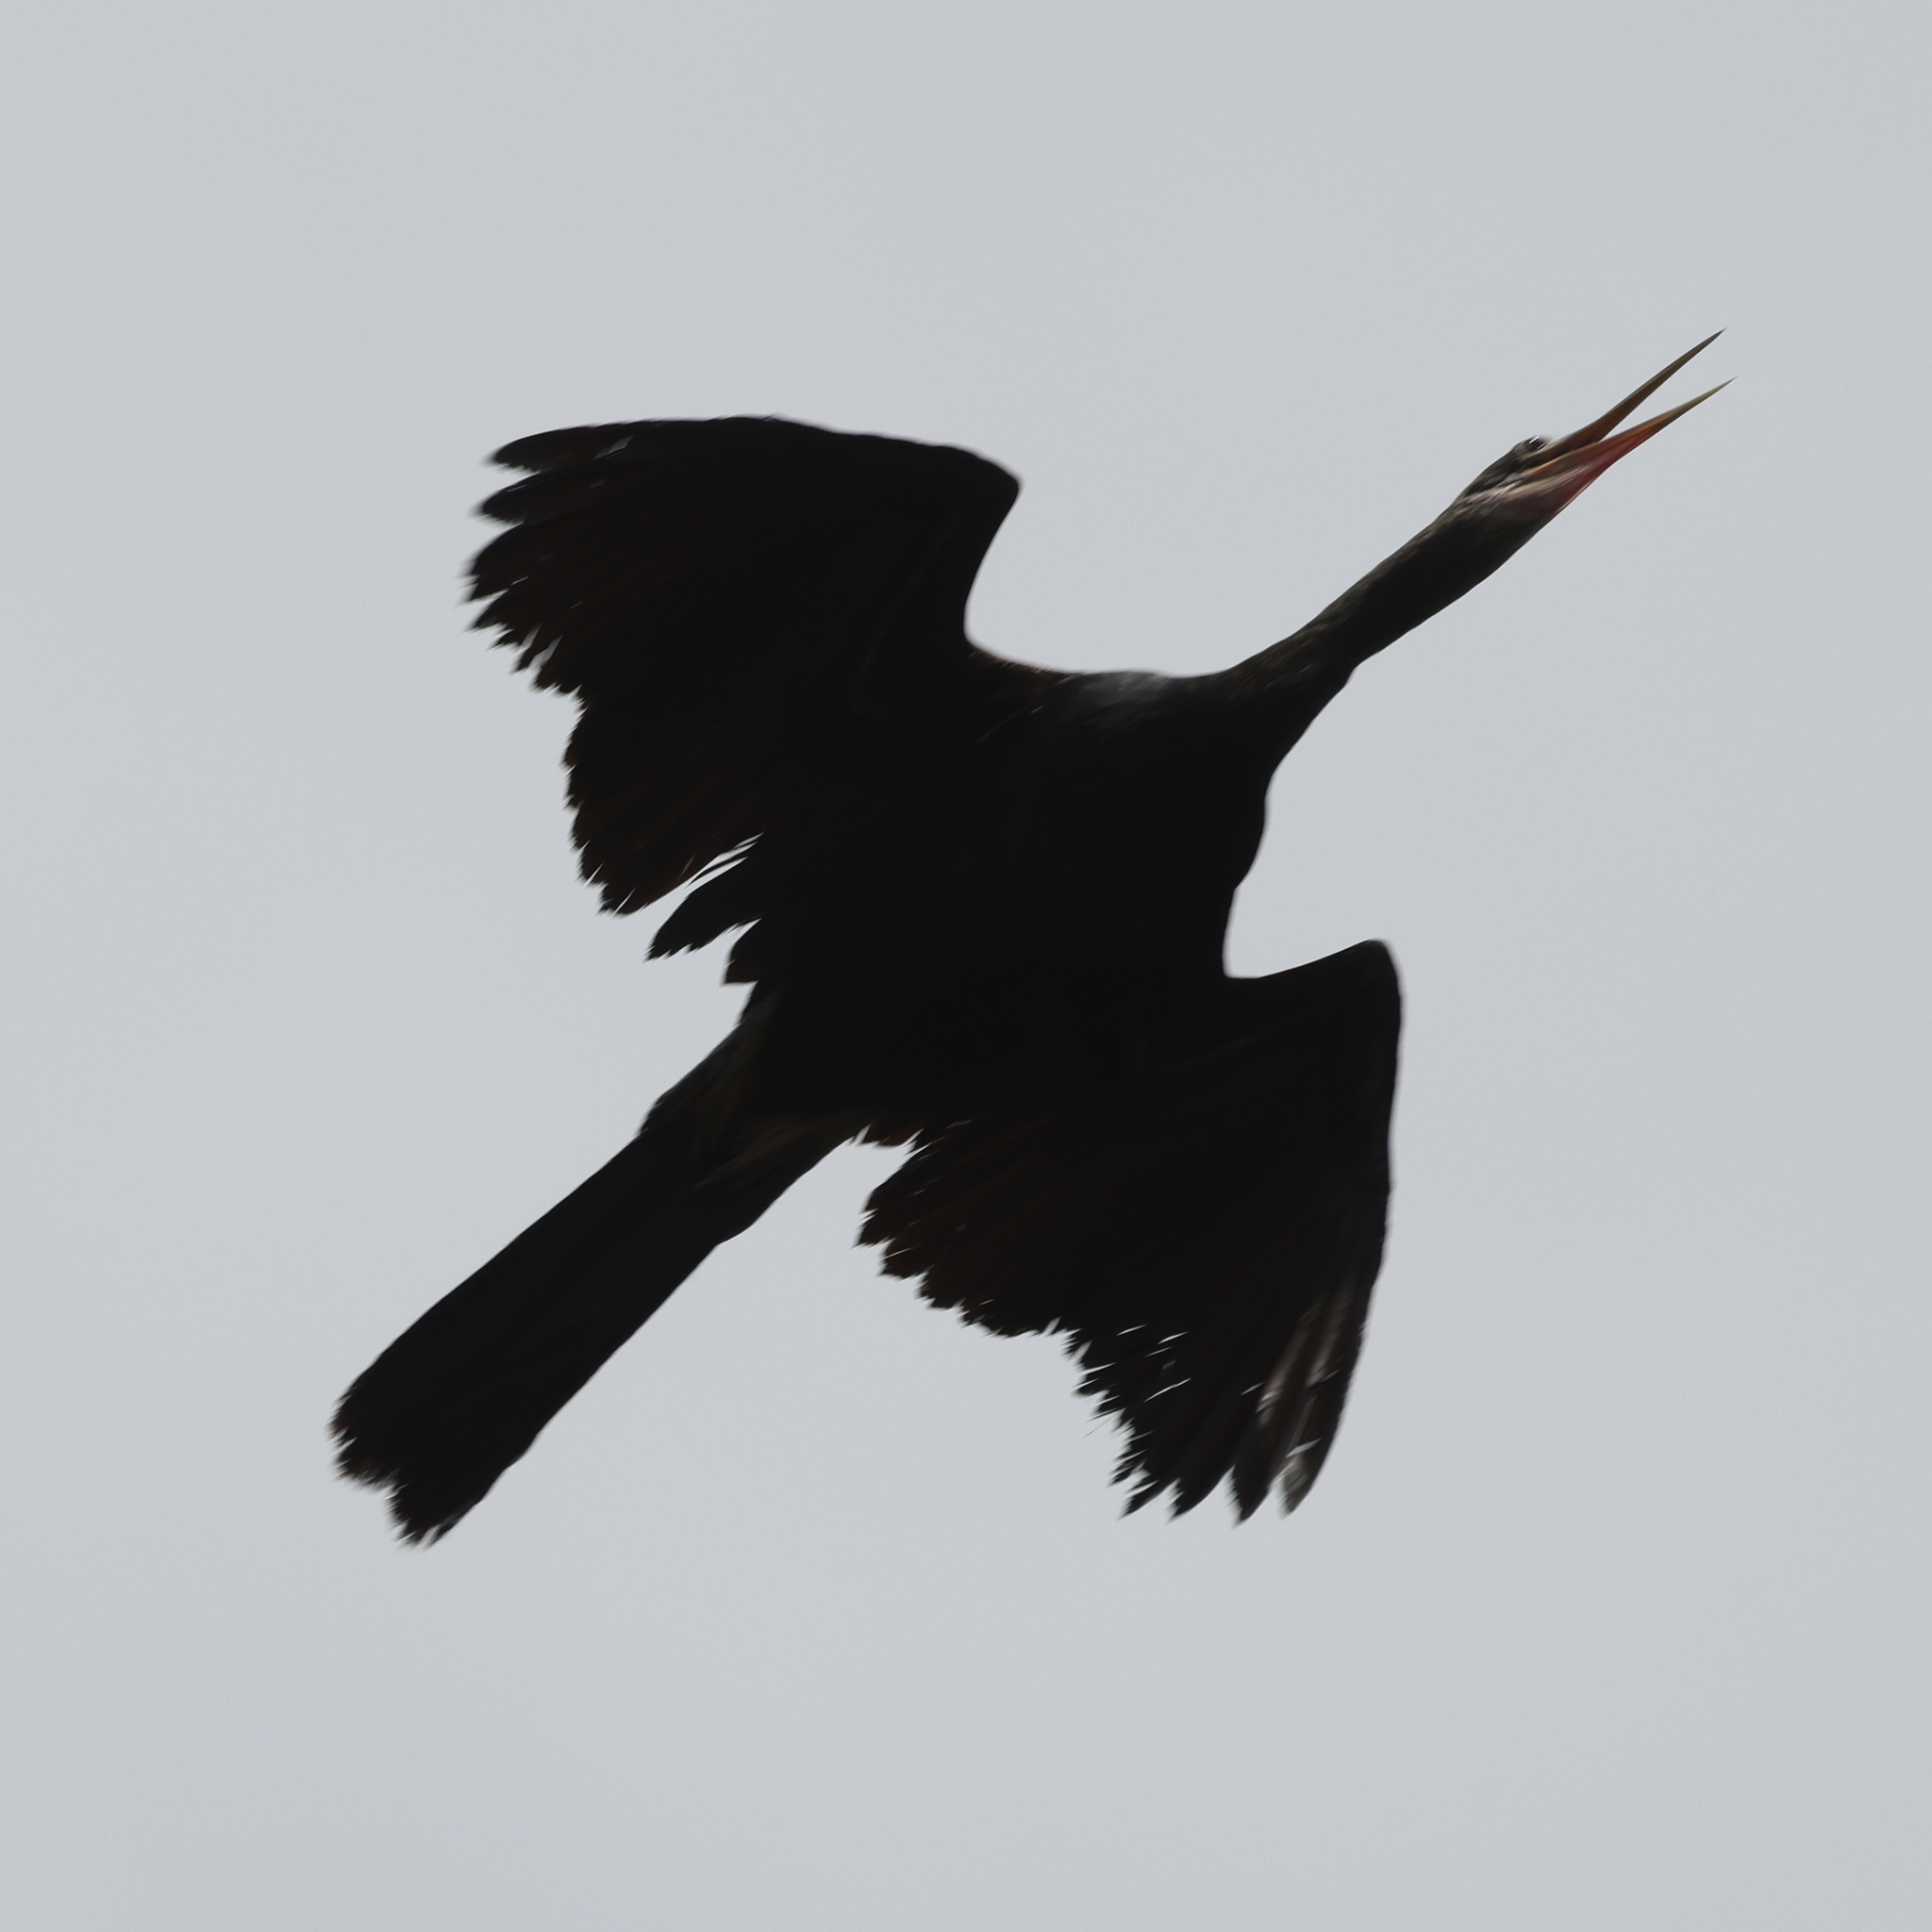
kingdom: Animalia
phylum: Chordata
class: Aves
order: Suliformes
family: Anhingidae
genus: Anhinga
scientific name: Anhinga anhinga
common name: Anhinga
